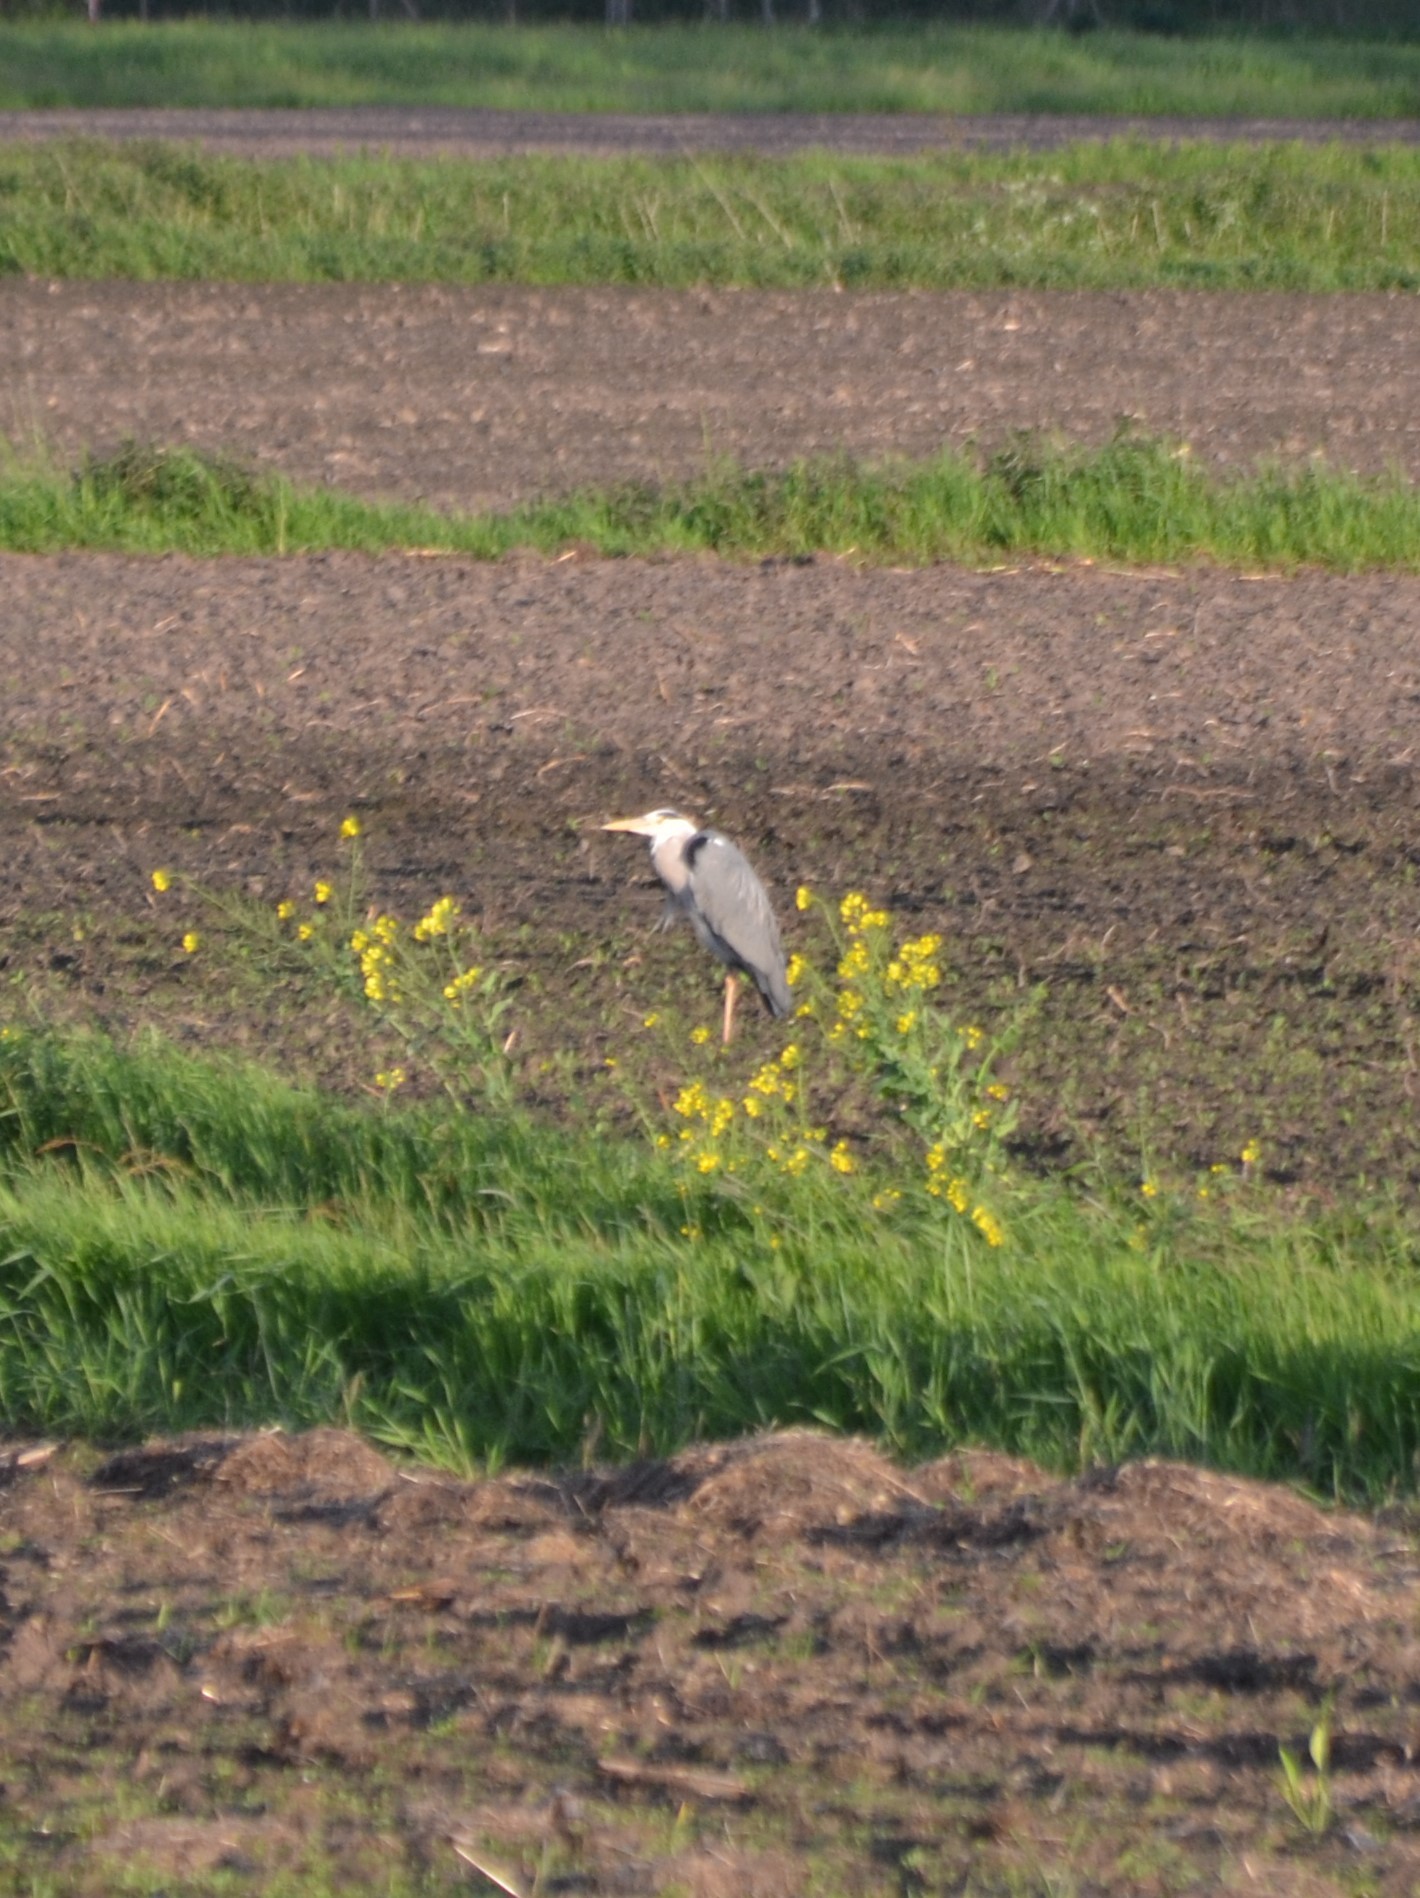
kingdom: Animalia
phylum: Chordata
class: Aves
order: Pelecaniformes
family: Ardeidae
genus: Ardea
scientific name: Ardea cinerea
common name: Grey heron
